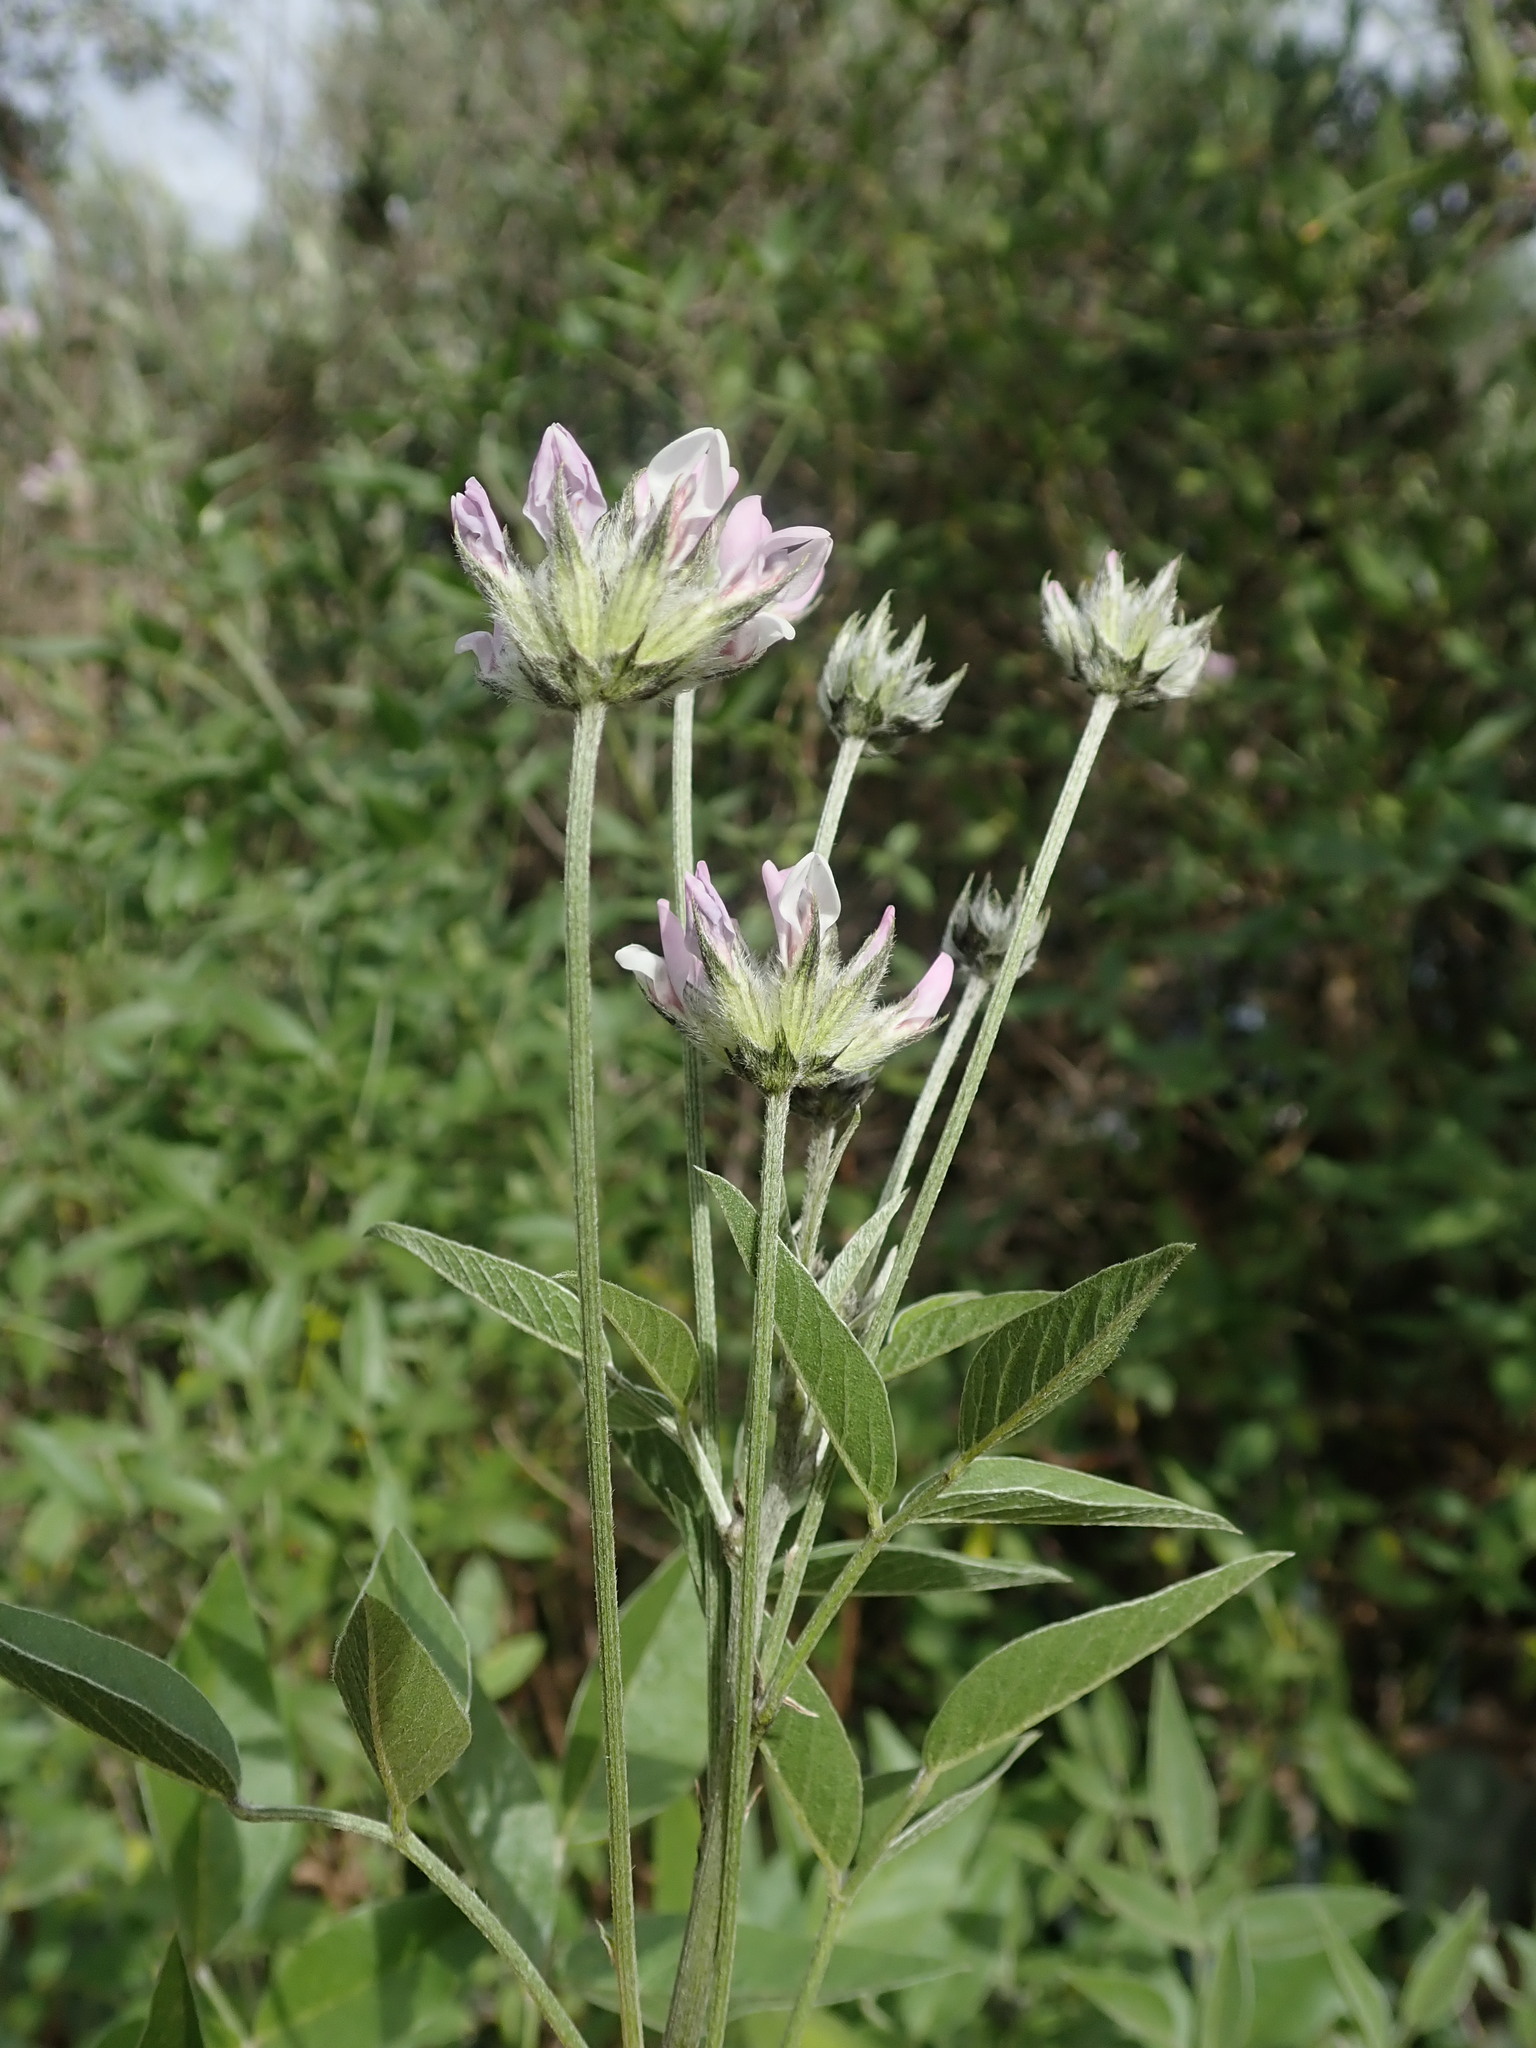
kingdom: Plantae
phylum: Tracheophyta
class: Magnoliopsida
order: Fabales
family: Fabaceae
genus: Bituminaria
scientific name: Bituminaria bituminosa
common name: Arabian pea
